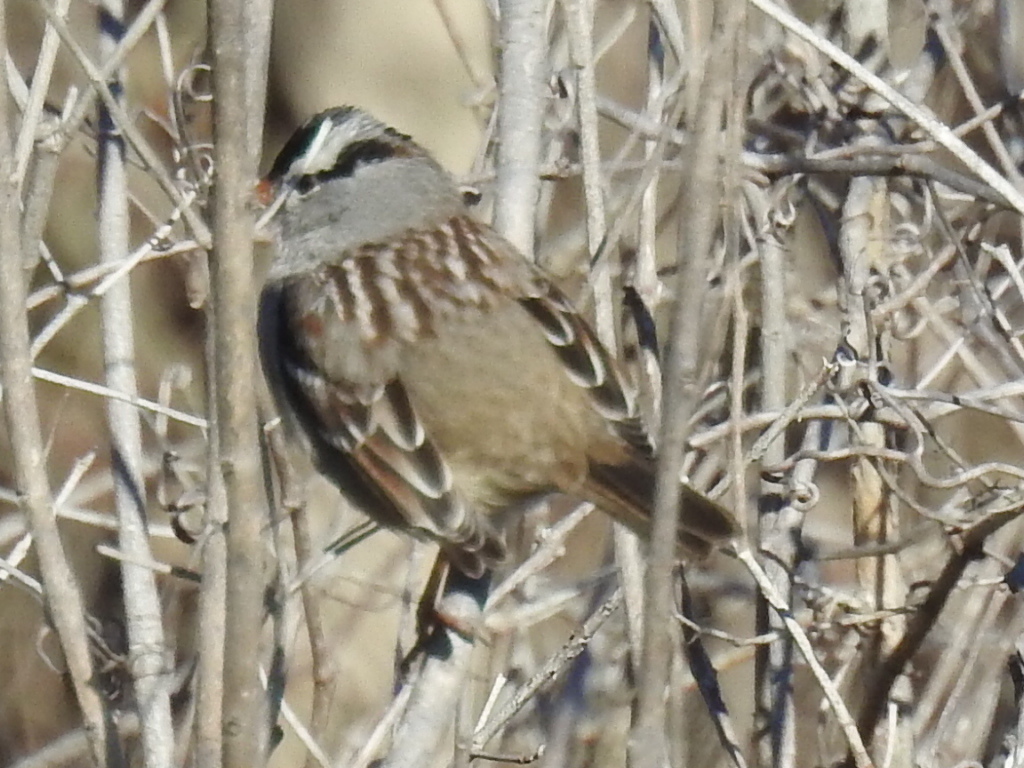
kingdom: Animalia
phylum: Chordata
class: Aves
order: Passeriformes
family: Passerellidae
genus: Zonotrichia
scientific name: Zonotrichia leucophrys
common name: White-crowned sparrow
